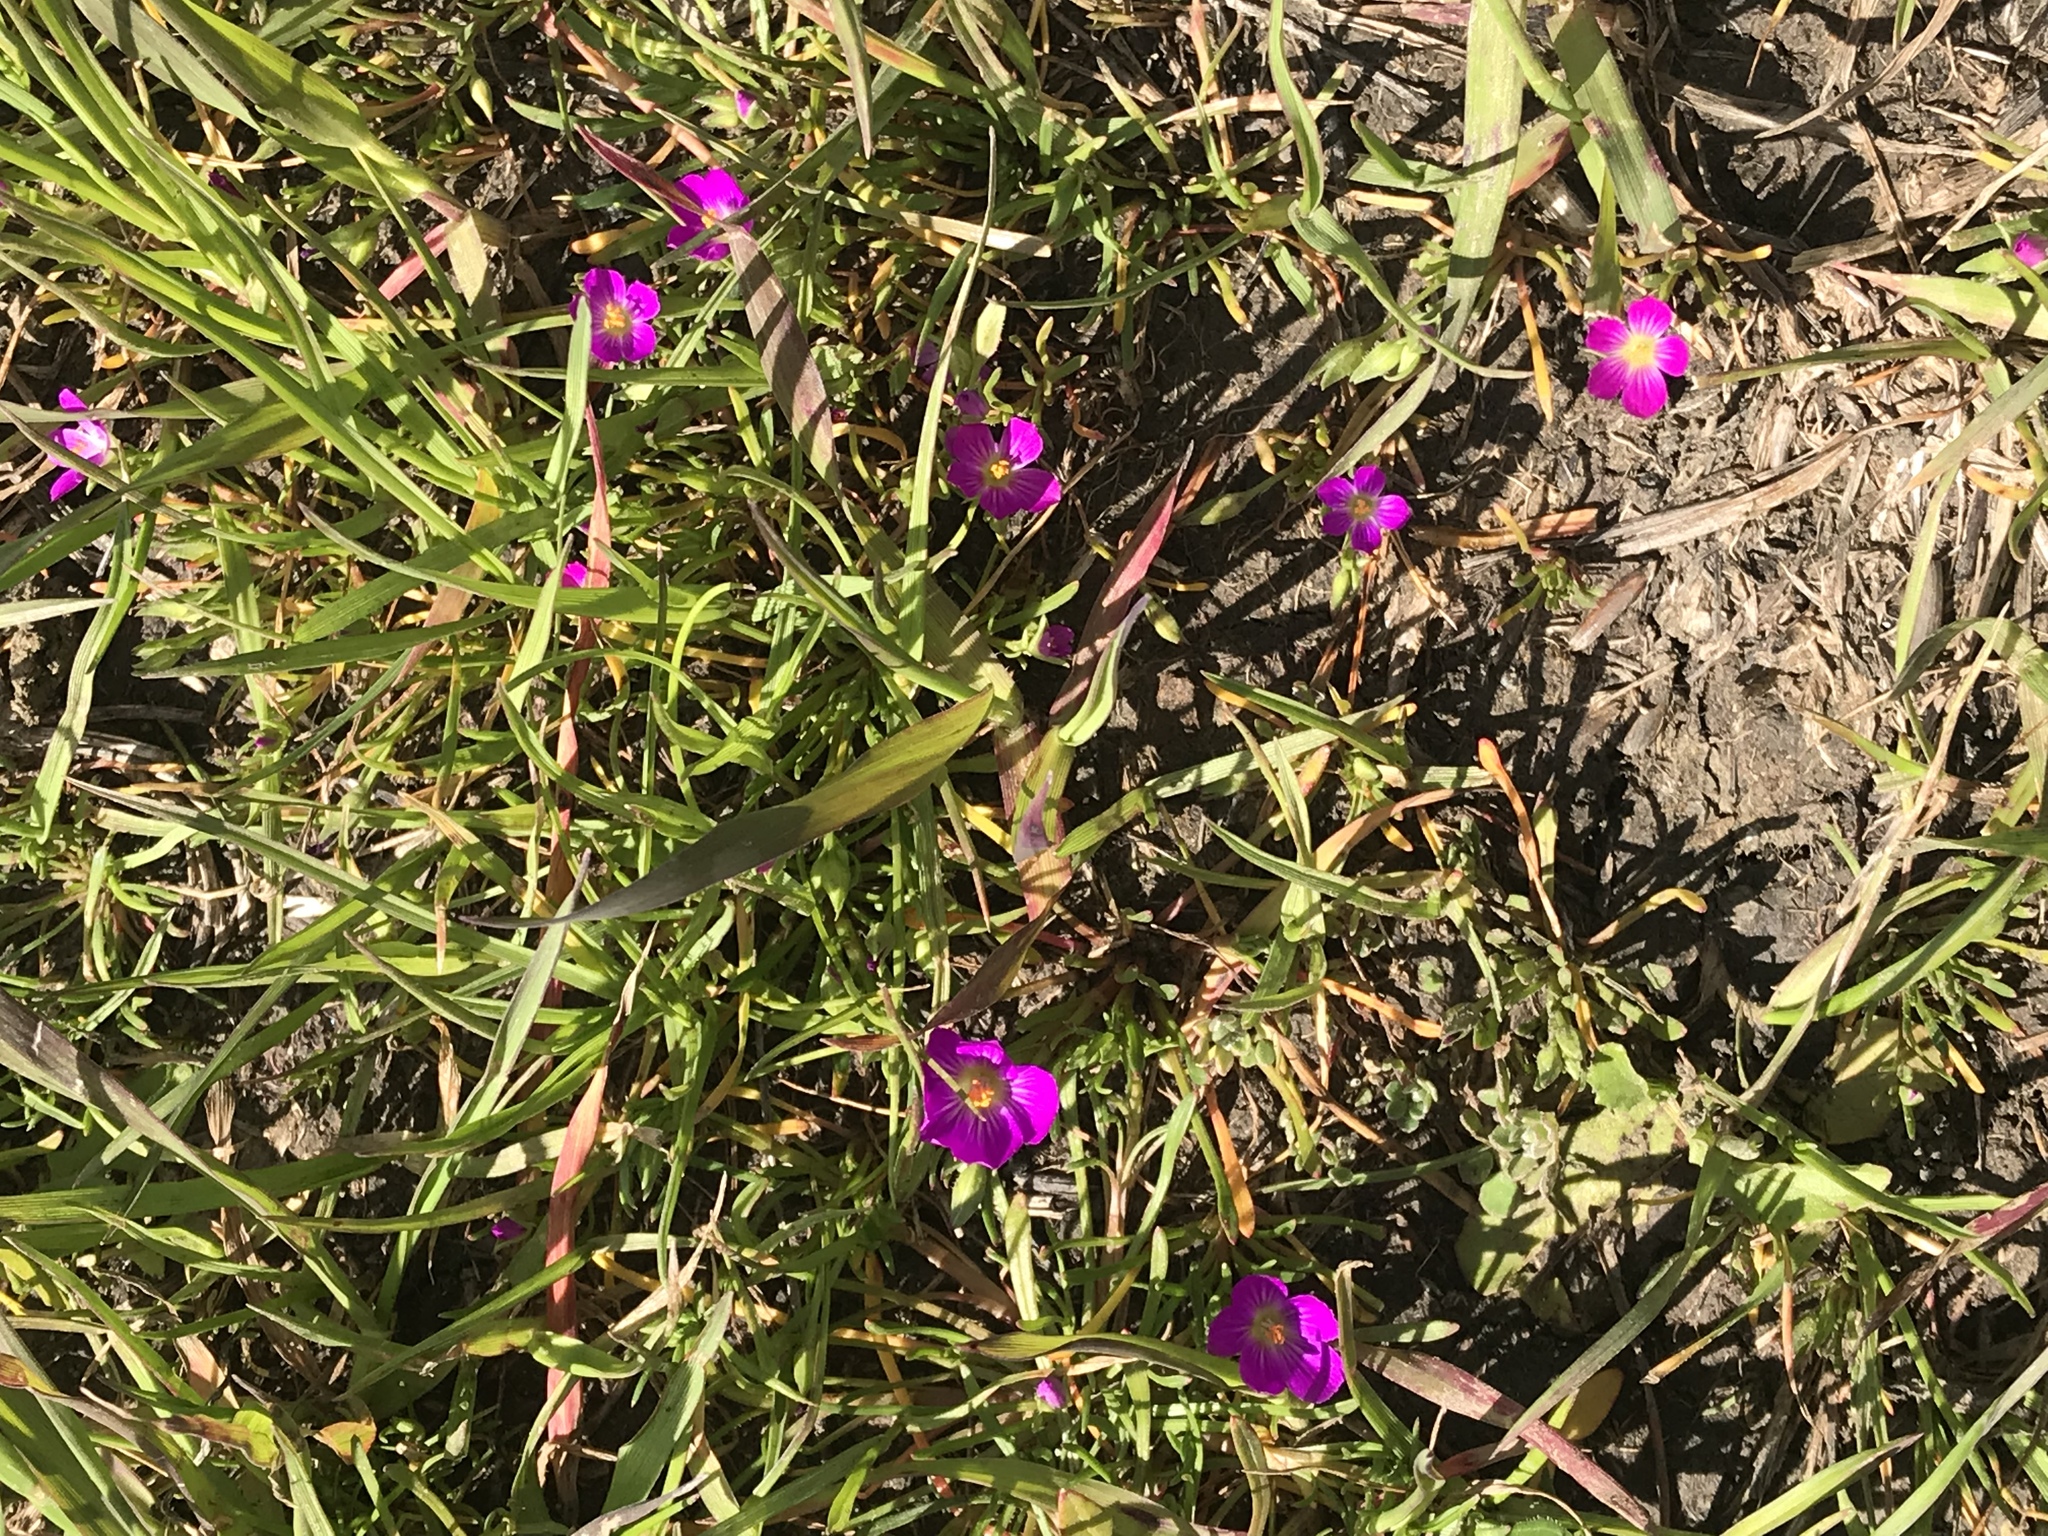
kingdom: Plantae
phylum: Tracheophyta
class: Magnoliopsida
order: Caryophyllales
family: Montiaceae
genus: Calandrinia
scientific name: Calandrinia menziesii
